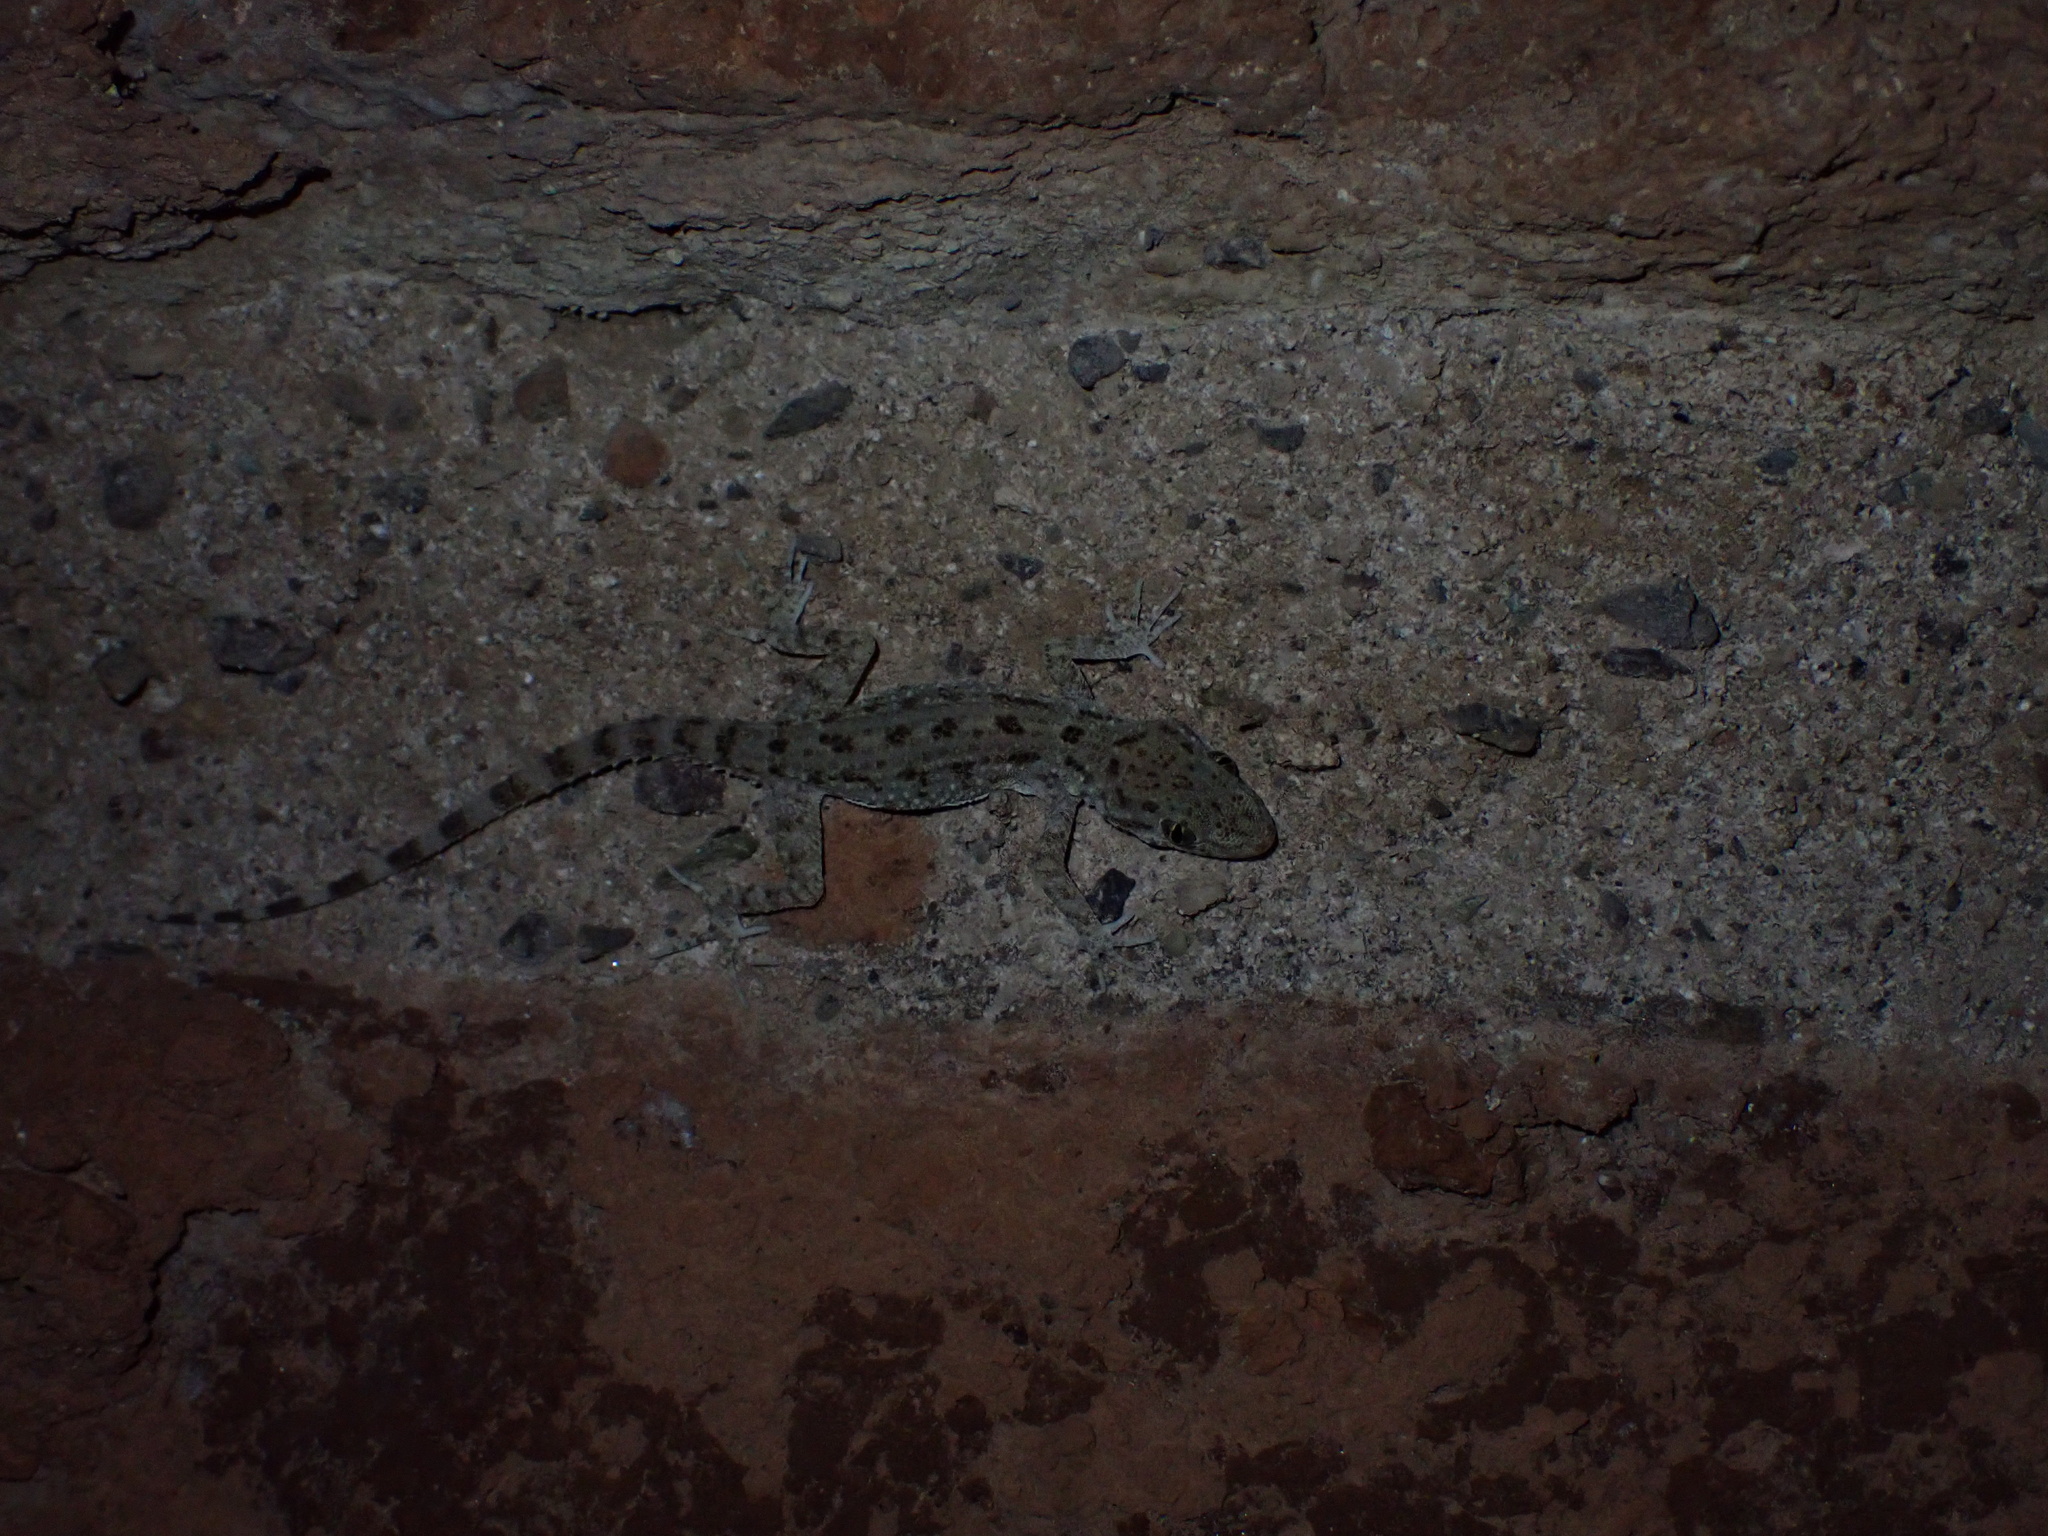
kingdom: Animalia
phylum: Chordata
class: Squamata
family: Gekkonidae
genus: Cyrtopodion
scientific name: Cyrtopodion scabrum
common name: Rough-tailed gecko
